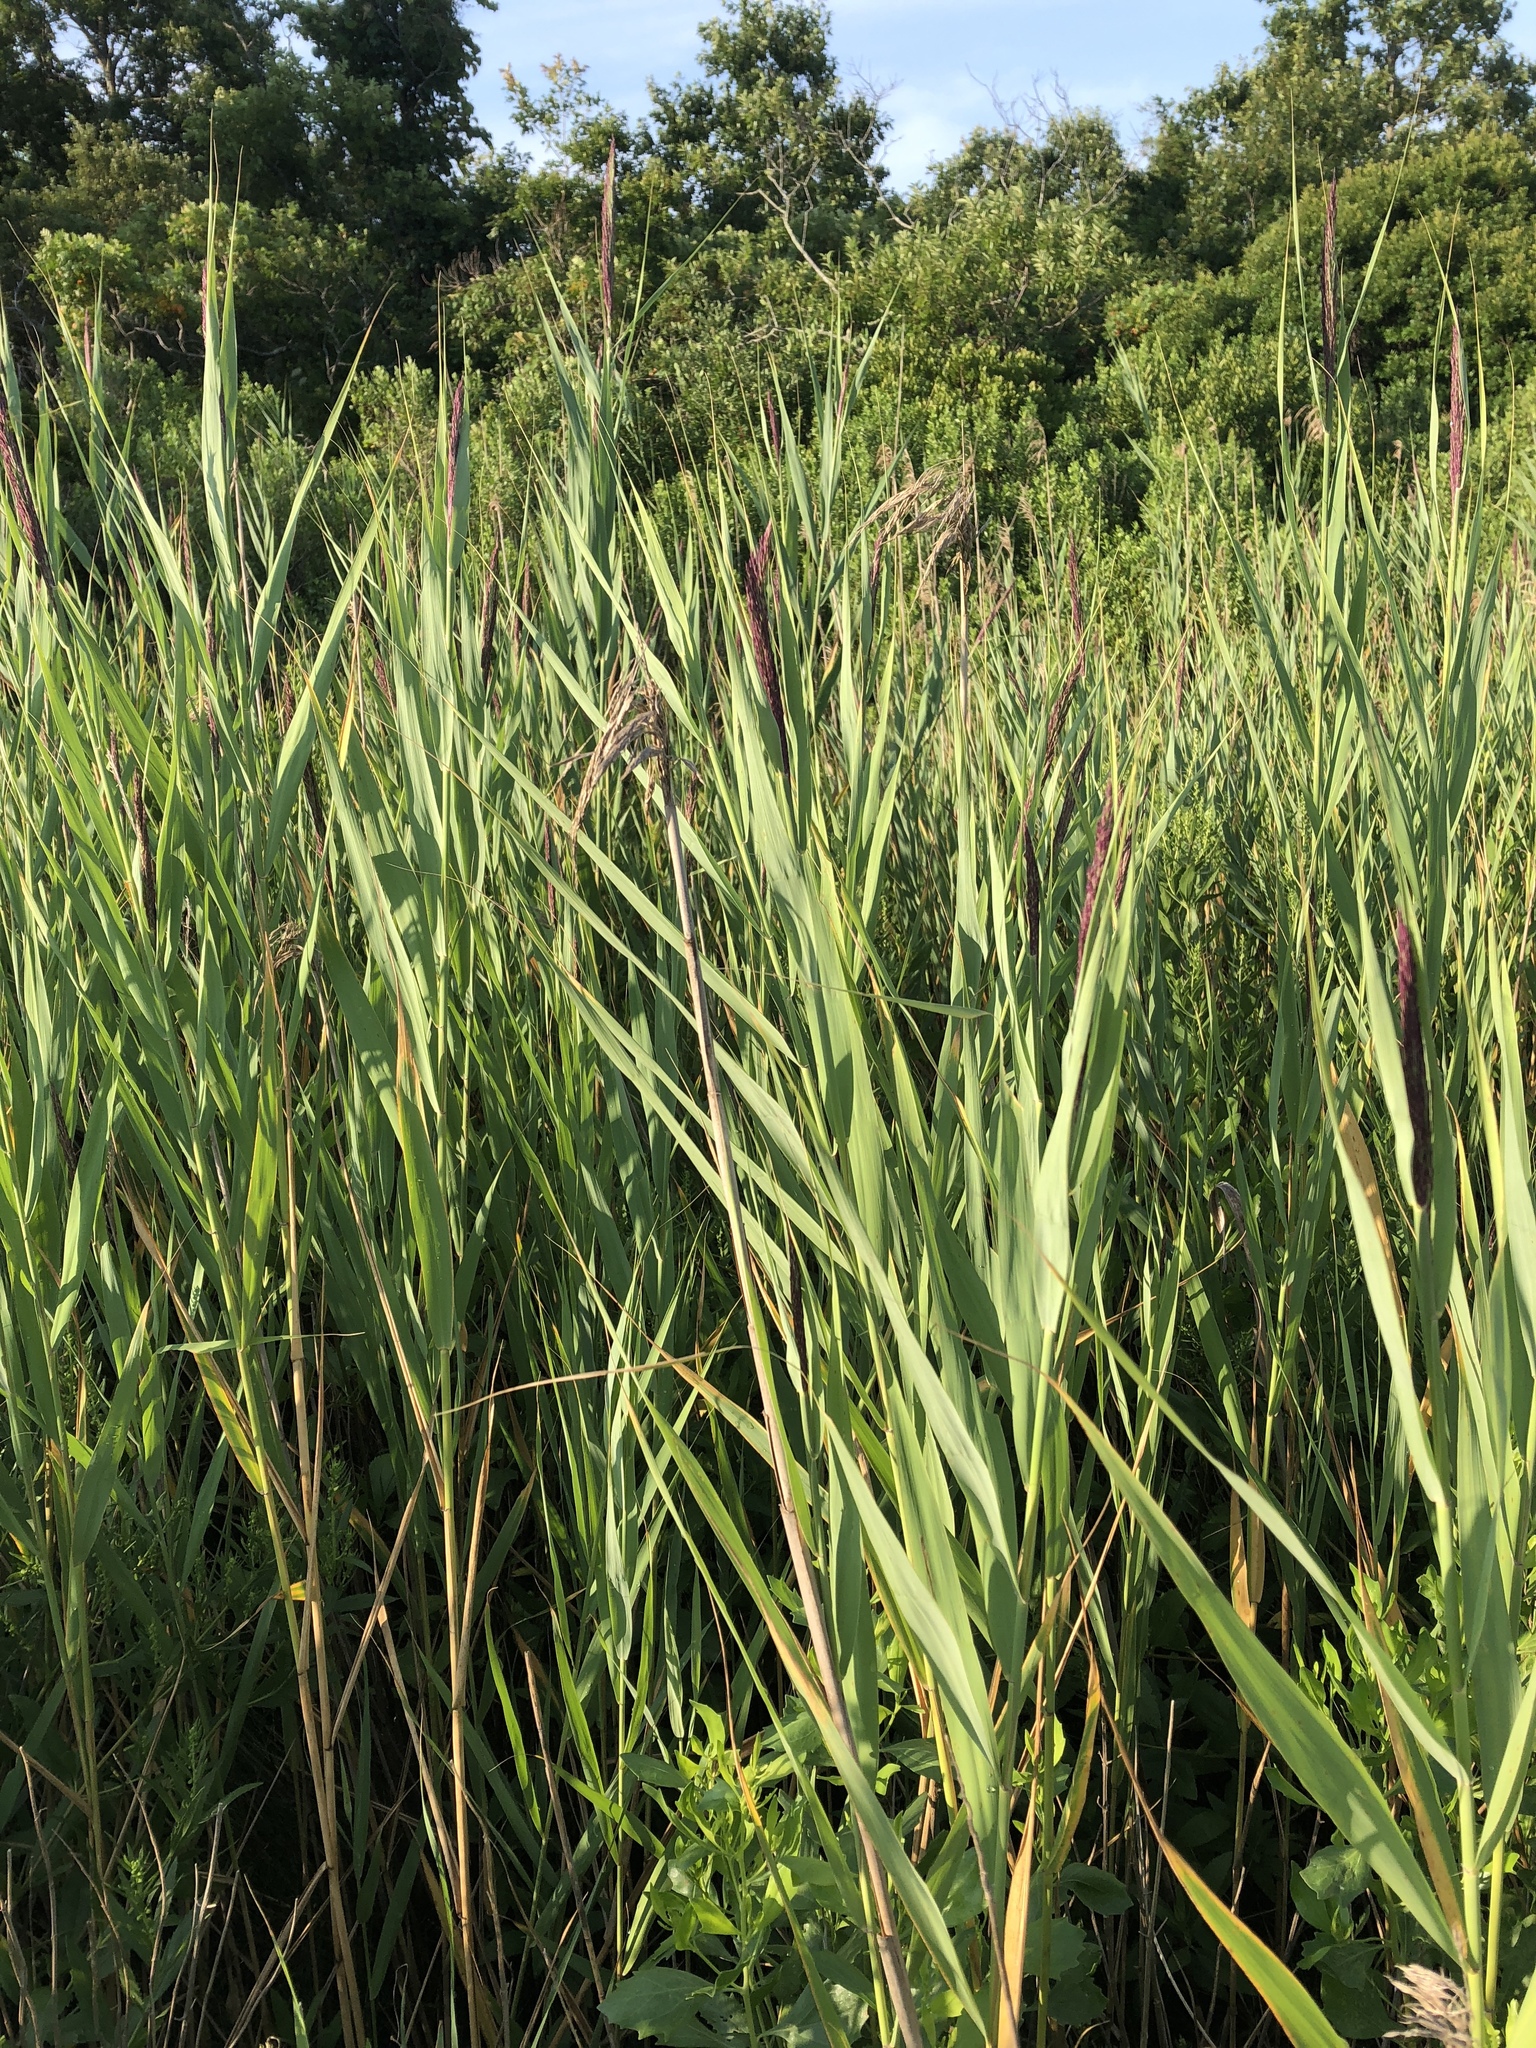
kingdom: Plantae
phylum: Tracheophyta
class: Liliopsida
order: Poales
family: Poaceae
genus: Phragmites
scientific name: Phragmites australis
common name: Common reed
